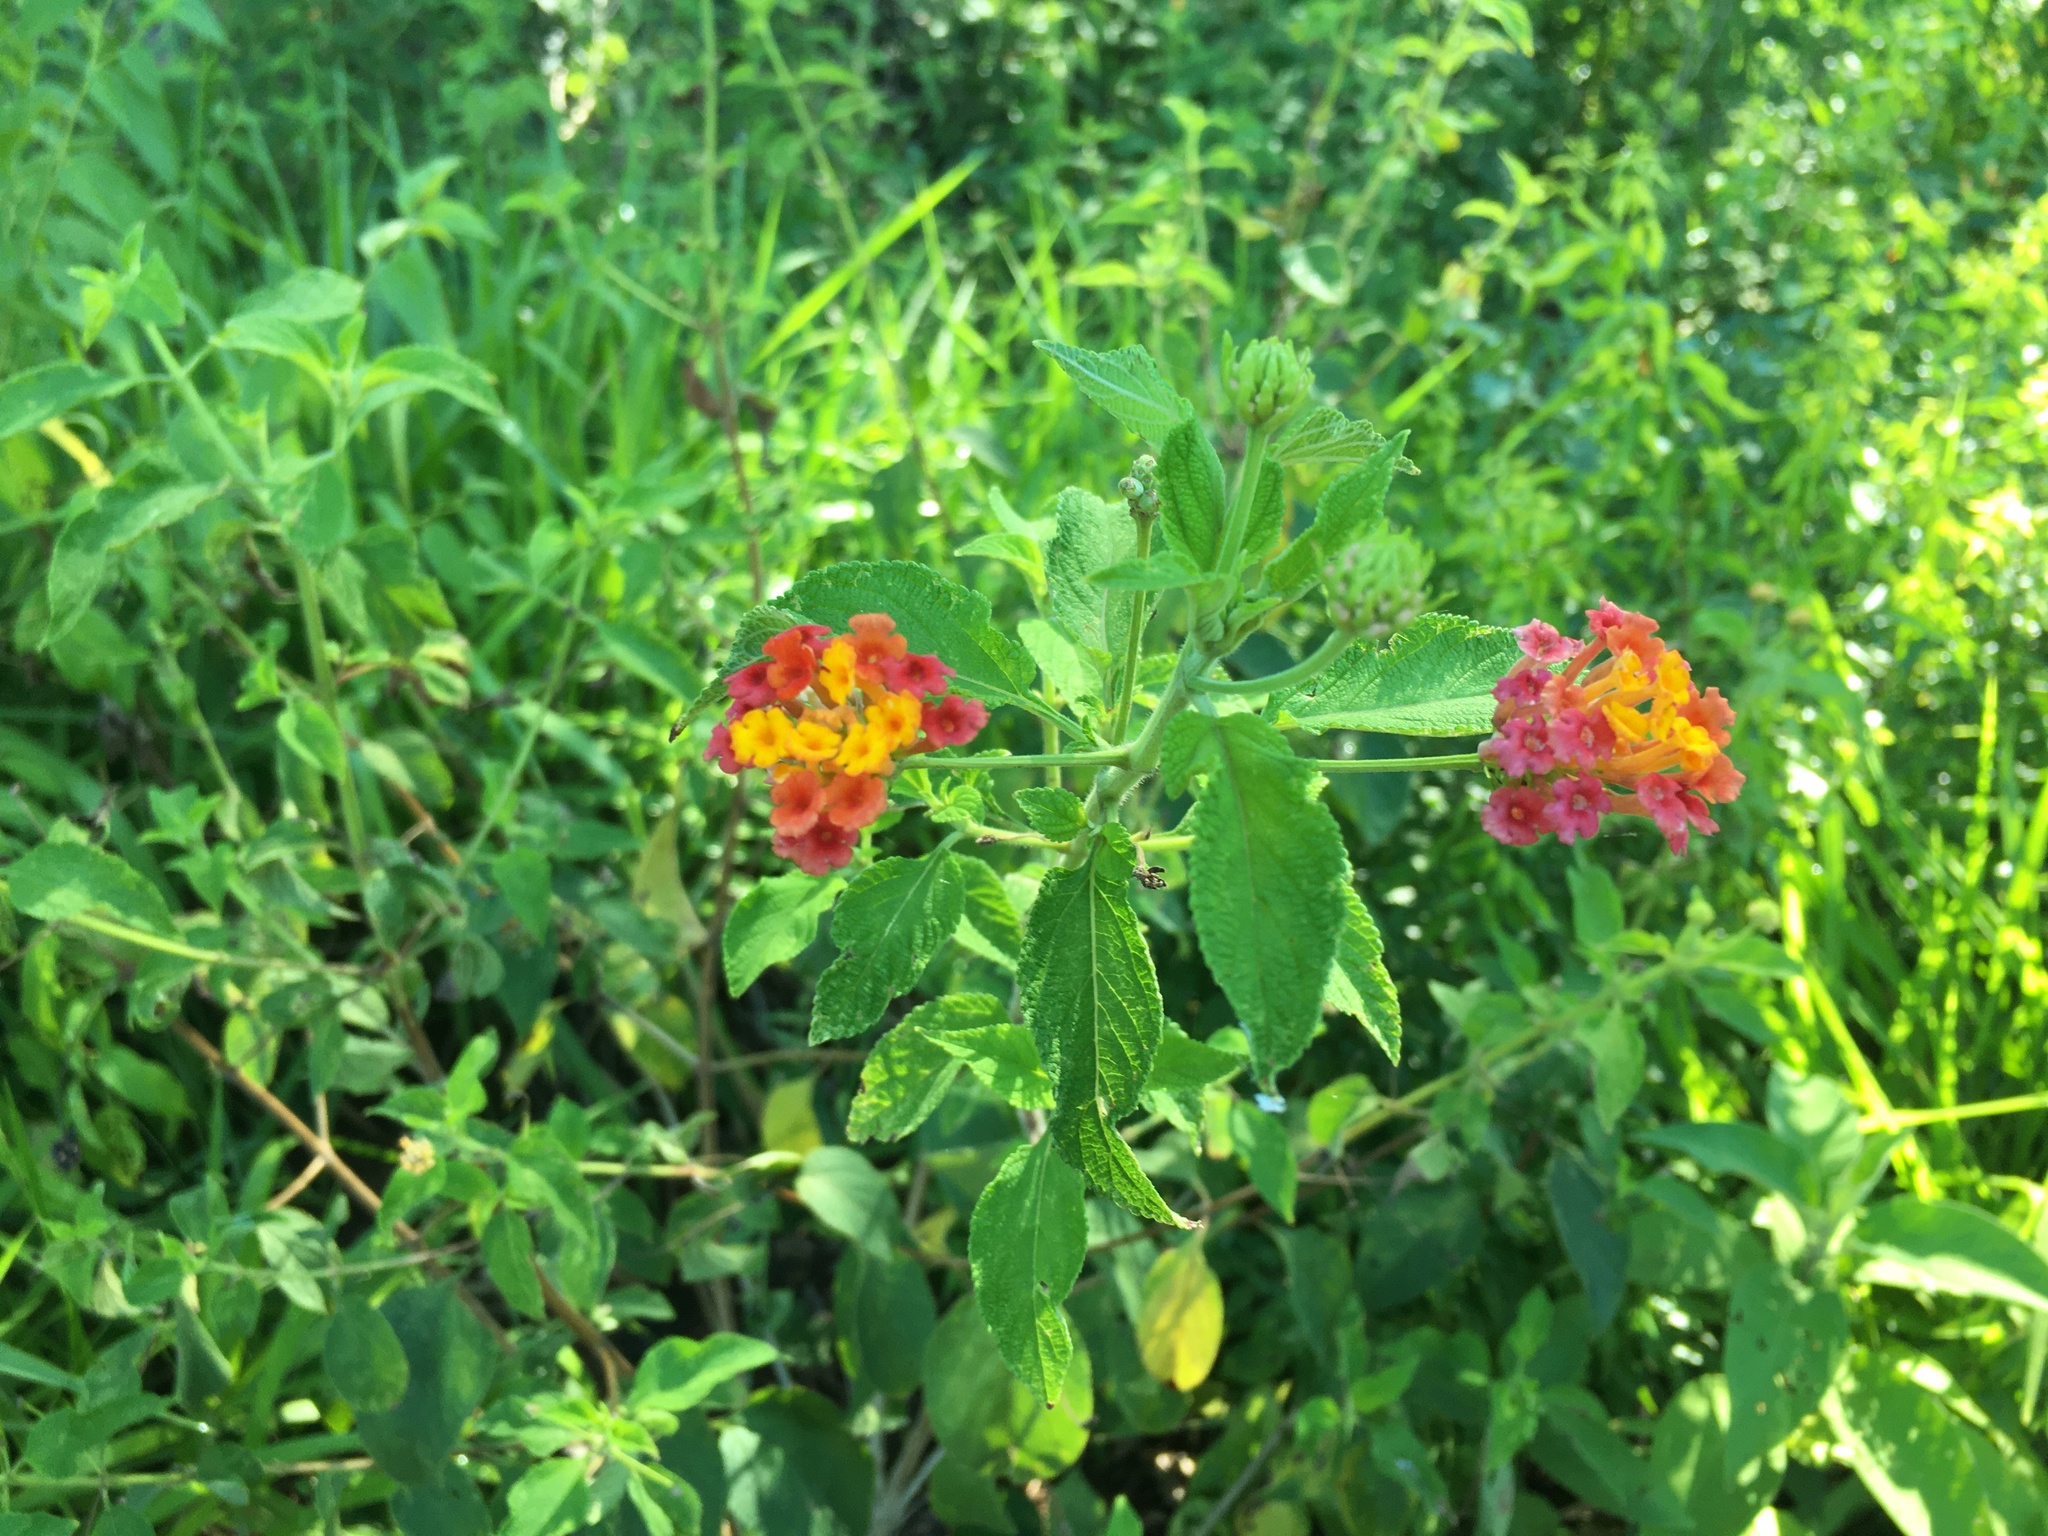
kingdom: Plantae
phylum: Tracheophyta
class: Magnoliopsida
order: Lamiales
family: Verbenaceae
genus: Lantana
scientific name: Lantana camara
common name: Lantana
